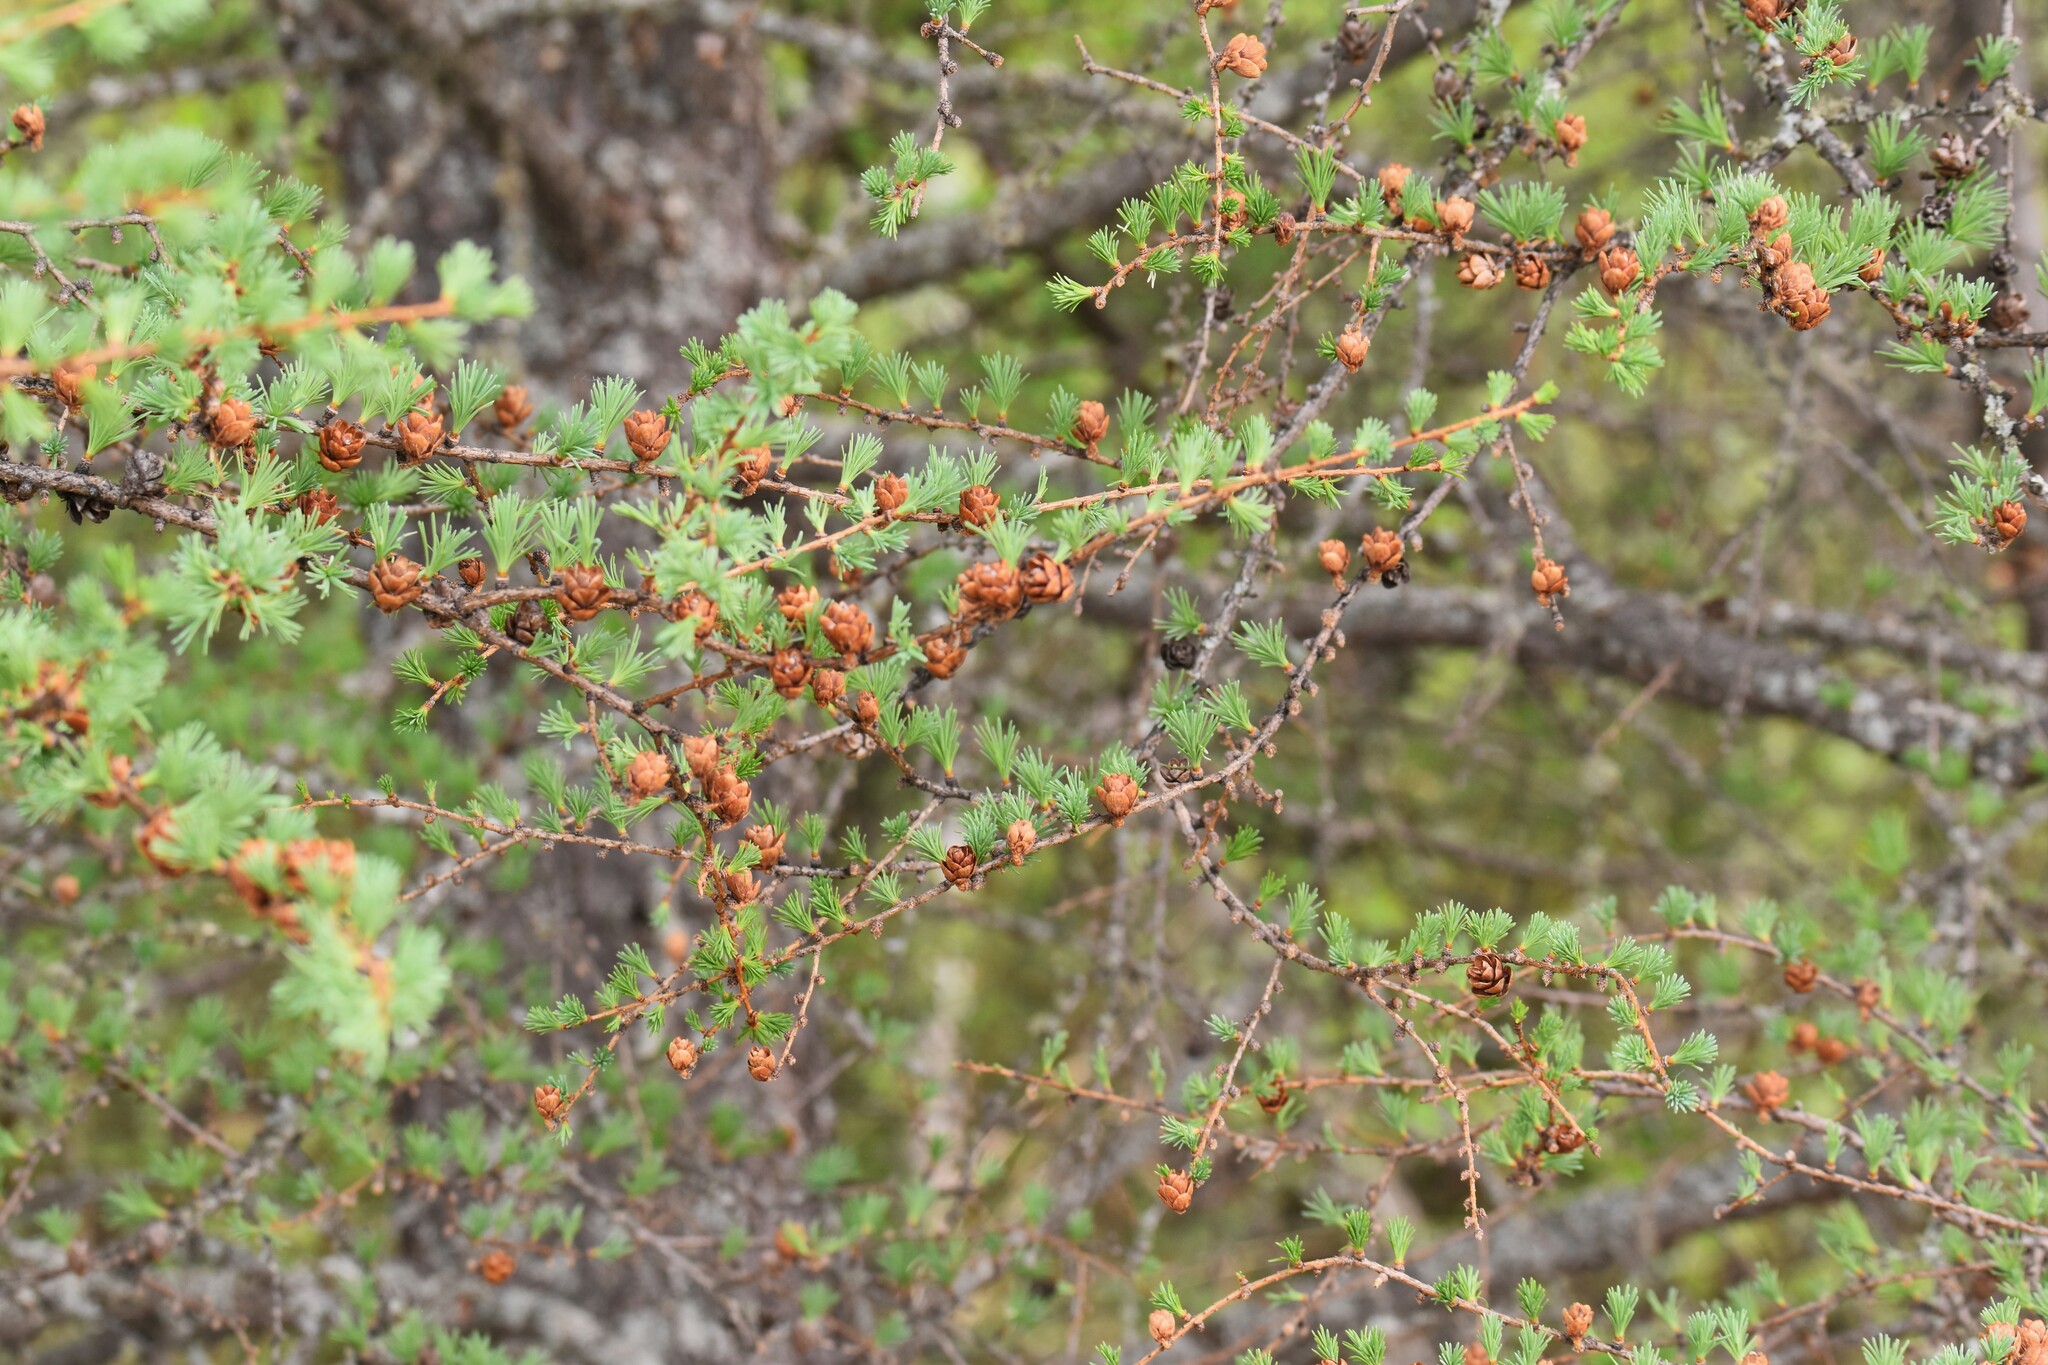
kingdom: Plantae
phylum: Tracheophyta
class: Pinopsida
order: Pinales
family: Pinaceae
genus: Larix
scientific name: Larix laricina
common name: American larch
